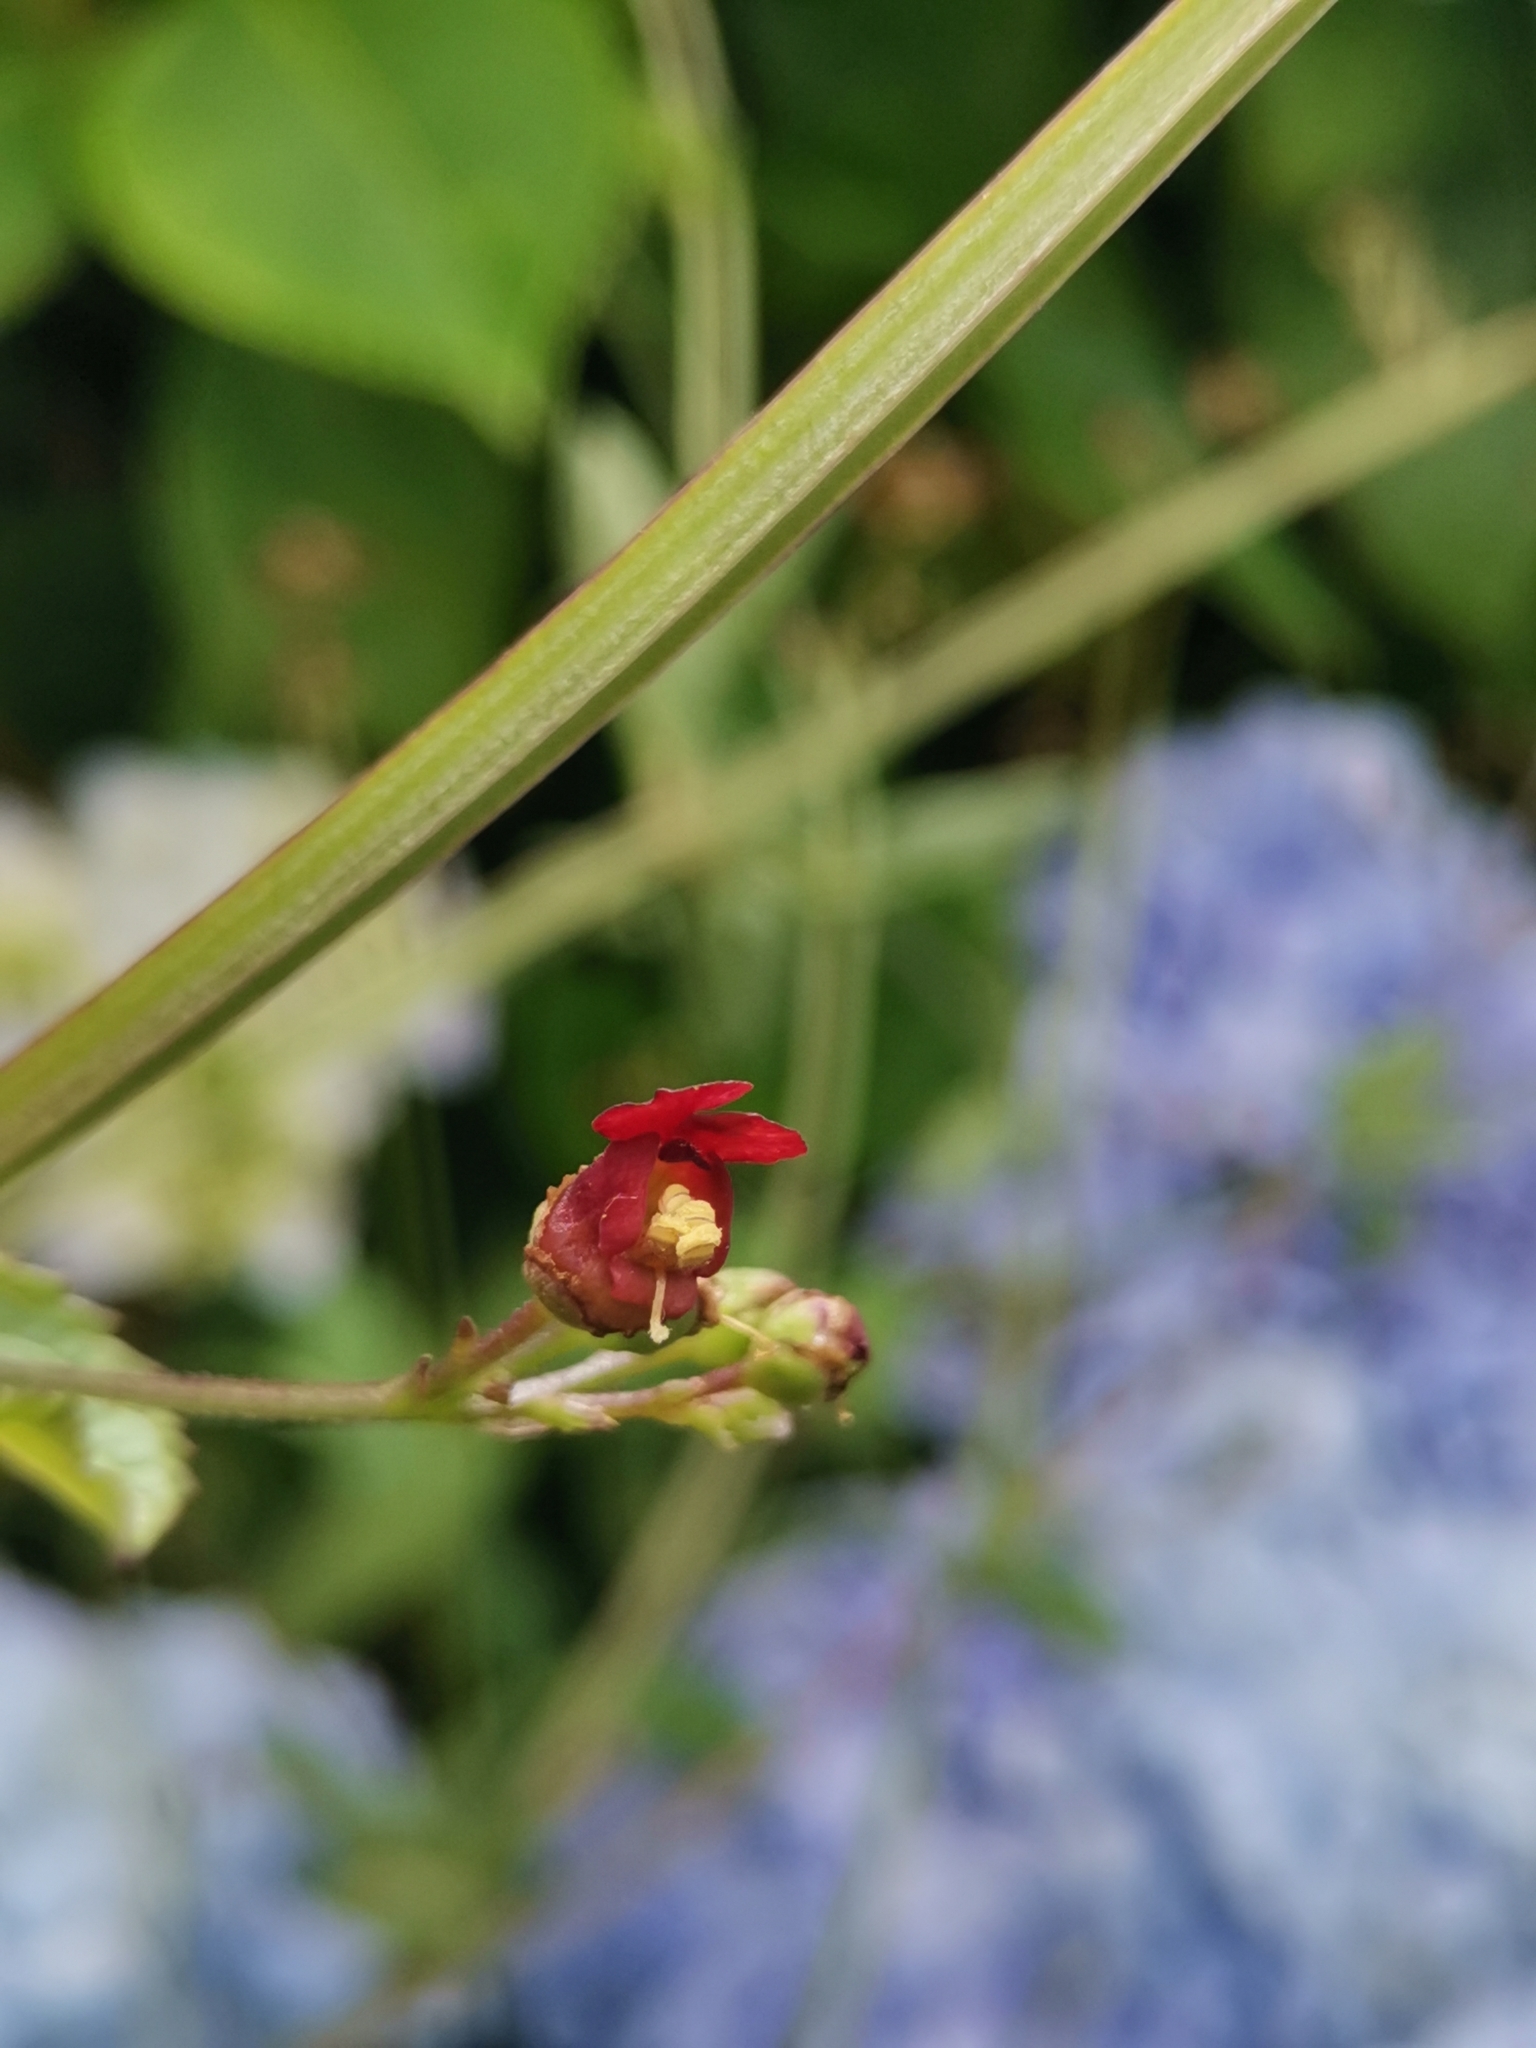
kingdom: Plantae
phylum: Tracheophyta
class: Magnoliopsida
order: Lamiales
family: Scrophulariaceae
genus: Scrophularia
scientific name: Scrophularia auriculata
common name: Water betony
